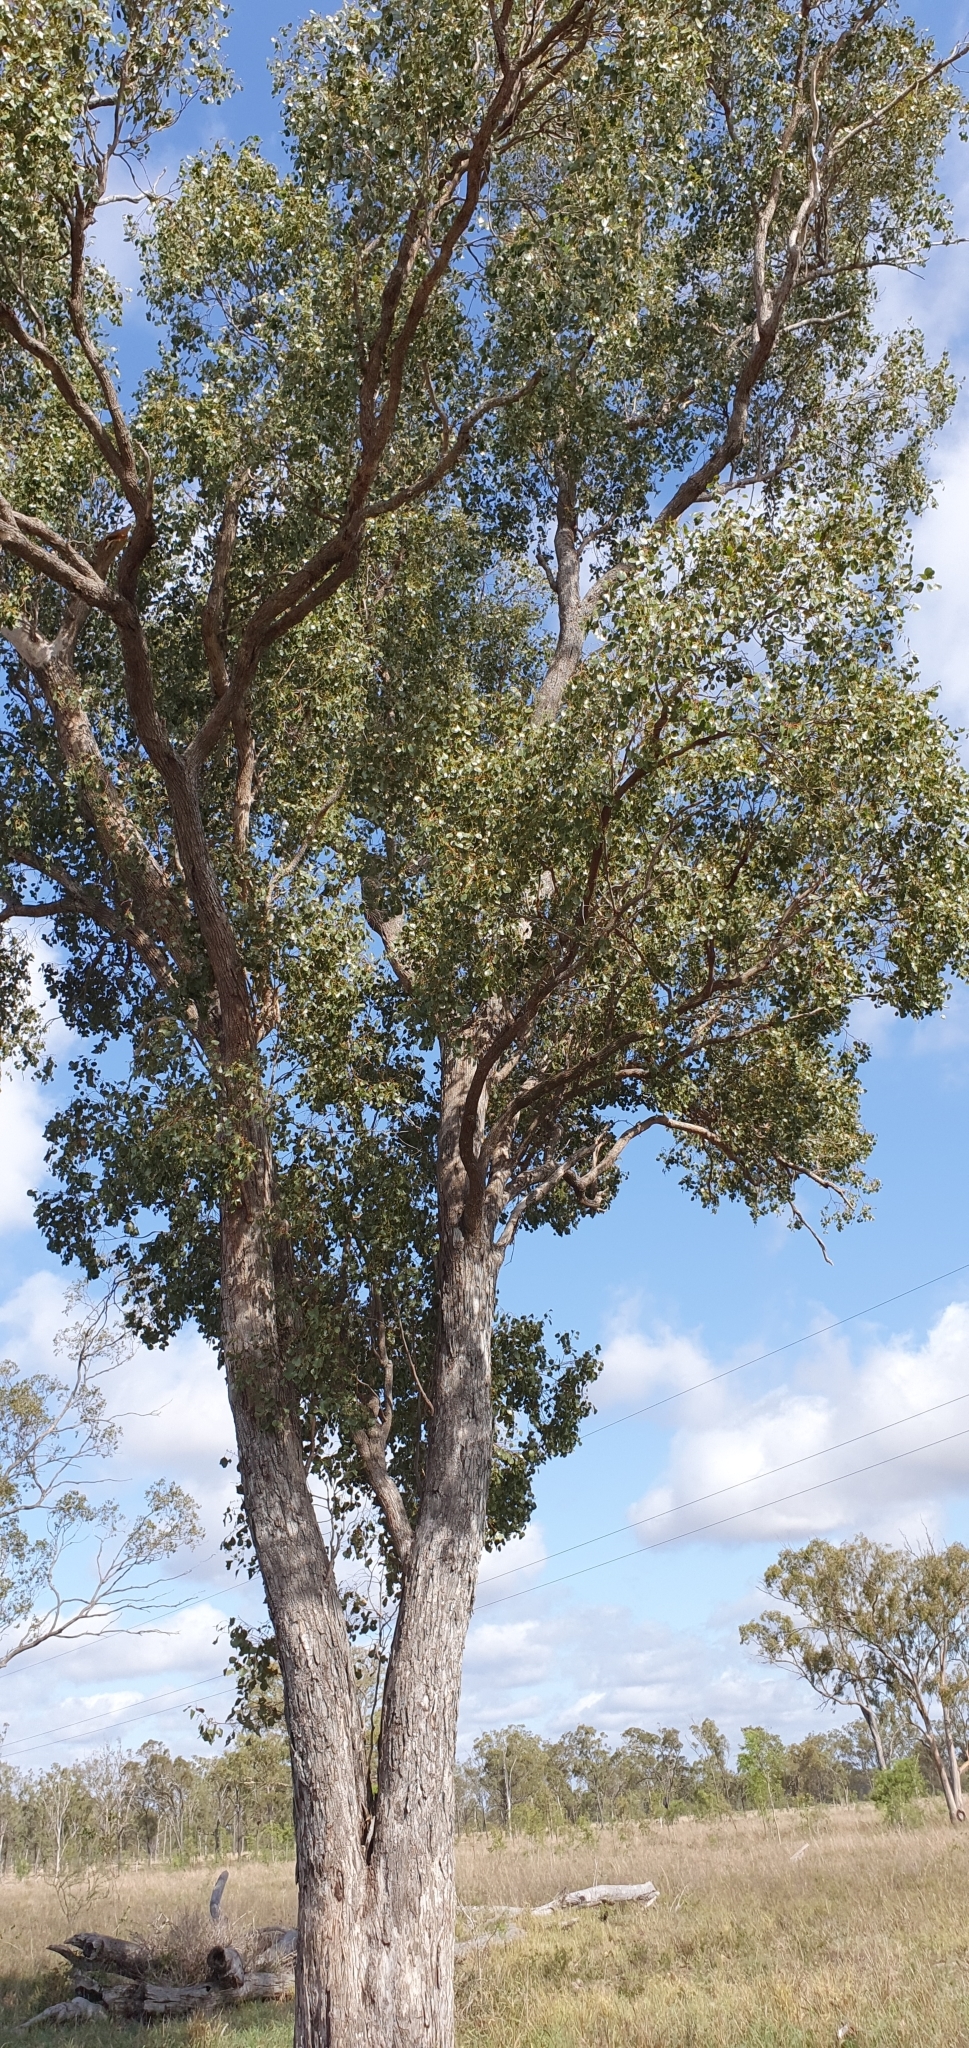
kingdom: Plantae
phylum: Tracheophyta
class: Magnoliopsida
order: Myrtales
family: Myrtaceae
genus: Eucalyptus
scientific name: Eucalyptus populnea
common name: Bimble box
